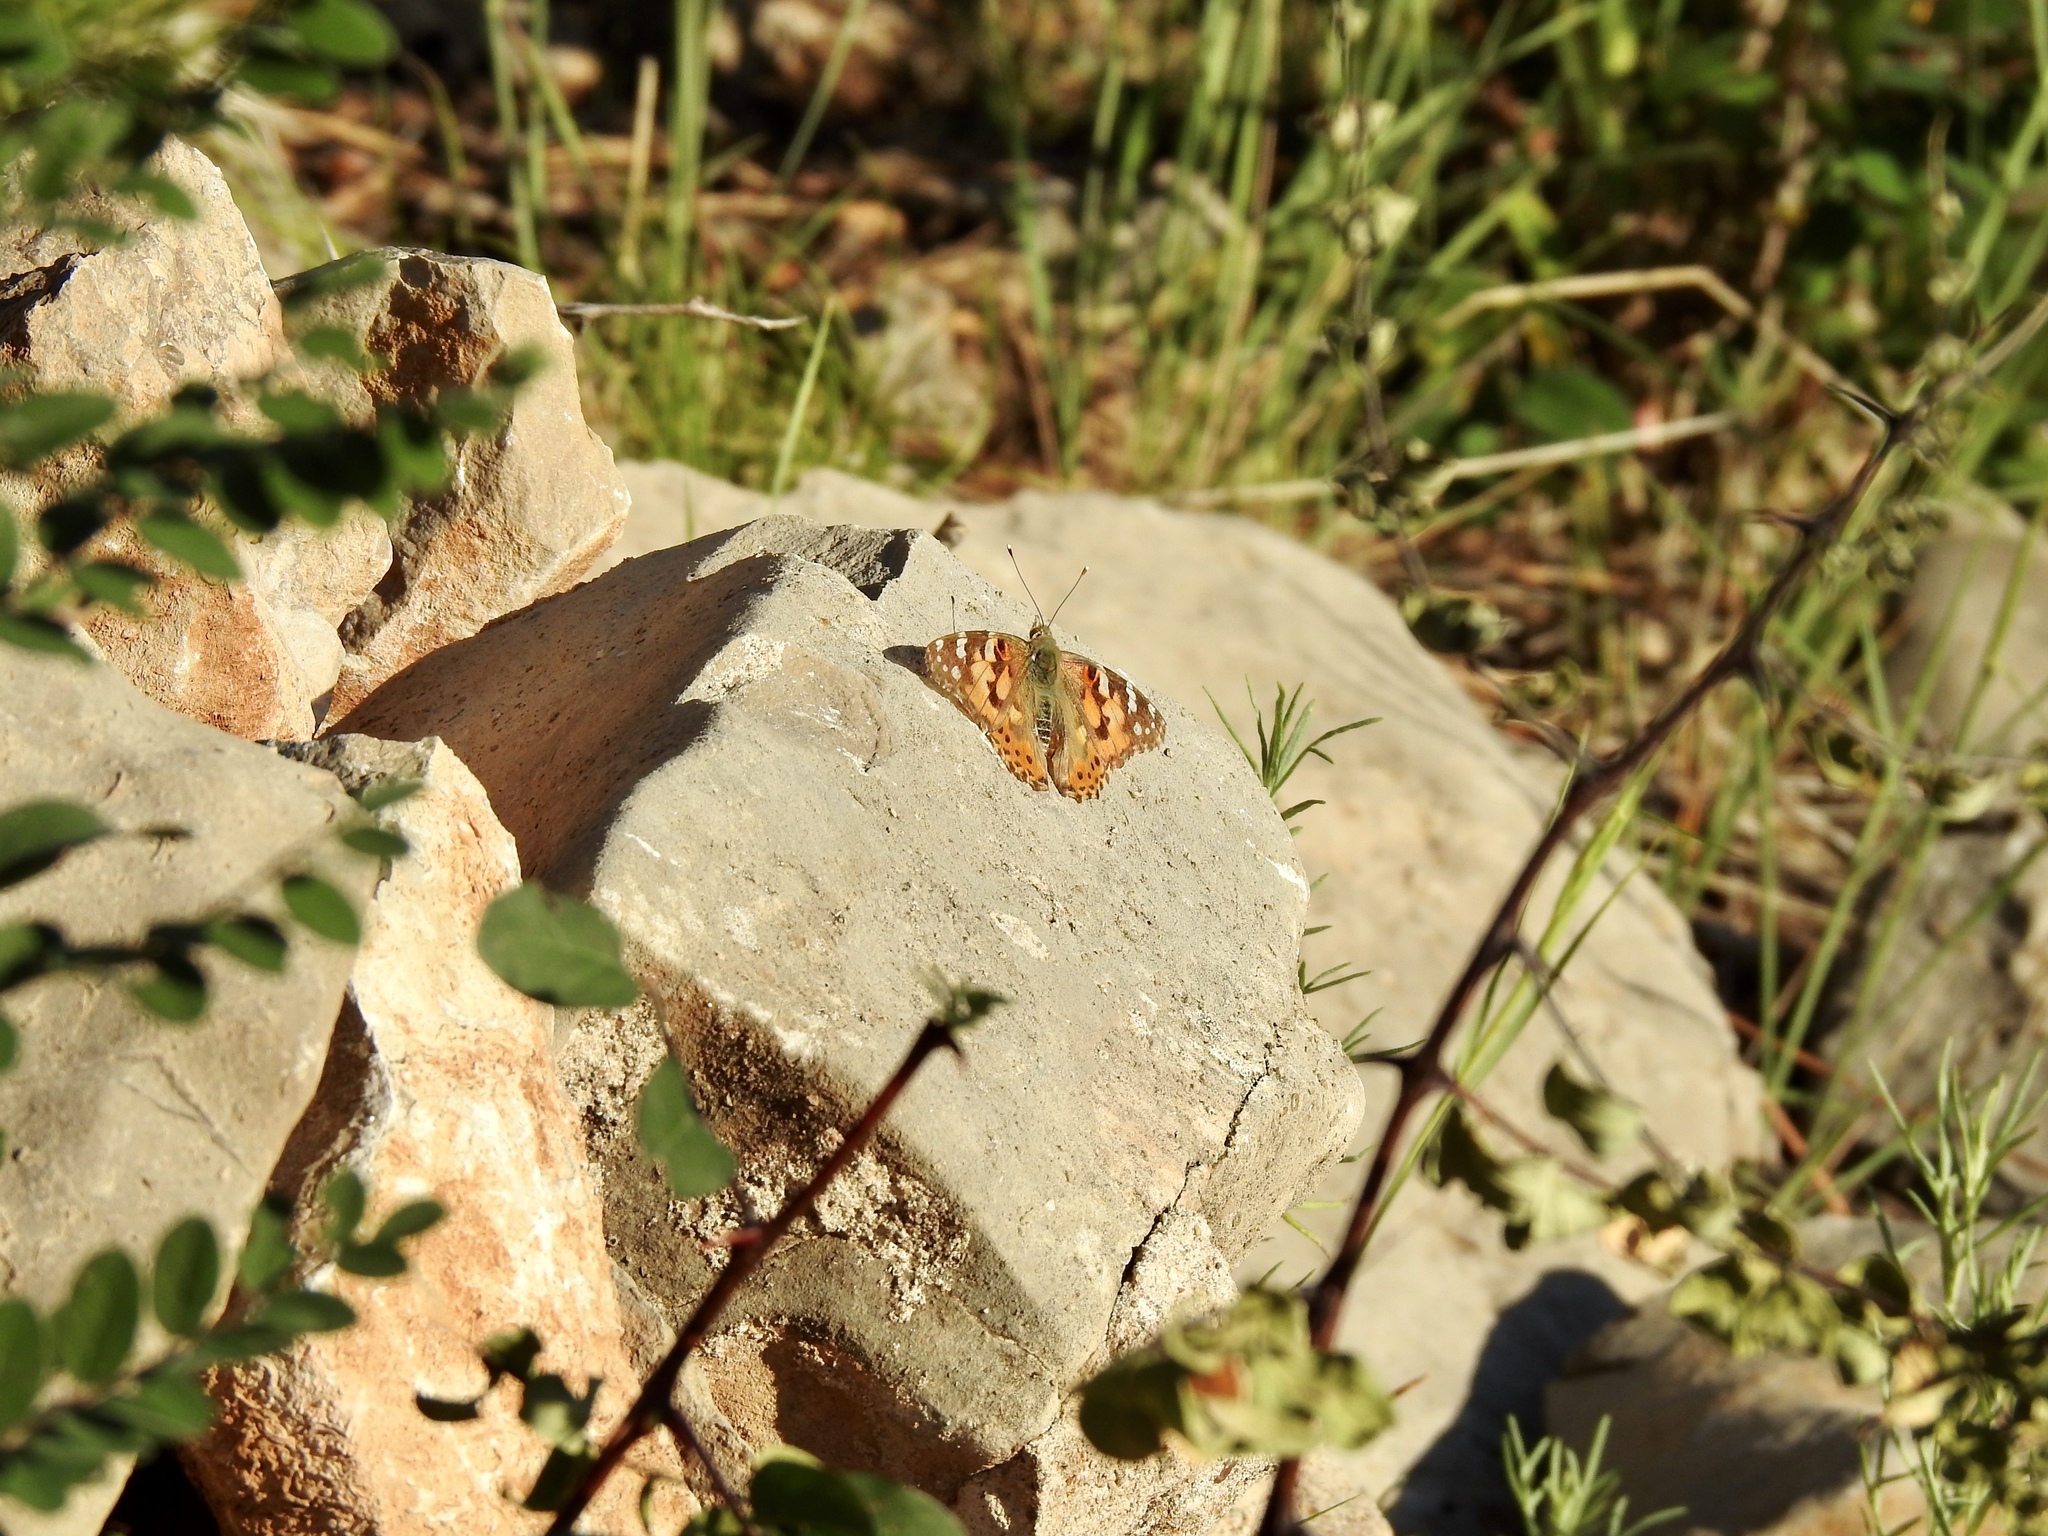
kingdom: Animalia
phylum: Arthropoda
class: Insecta
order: Lepidoptera
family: Nymphalidae
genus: Vanessa
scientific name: Vanessa cardui
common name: Painted lady
